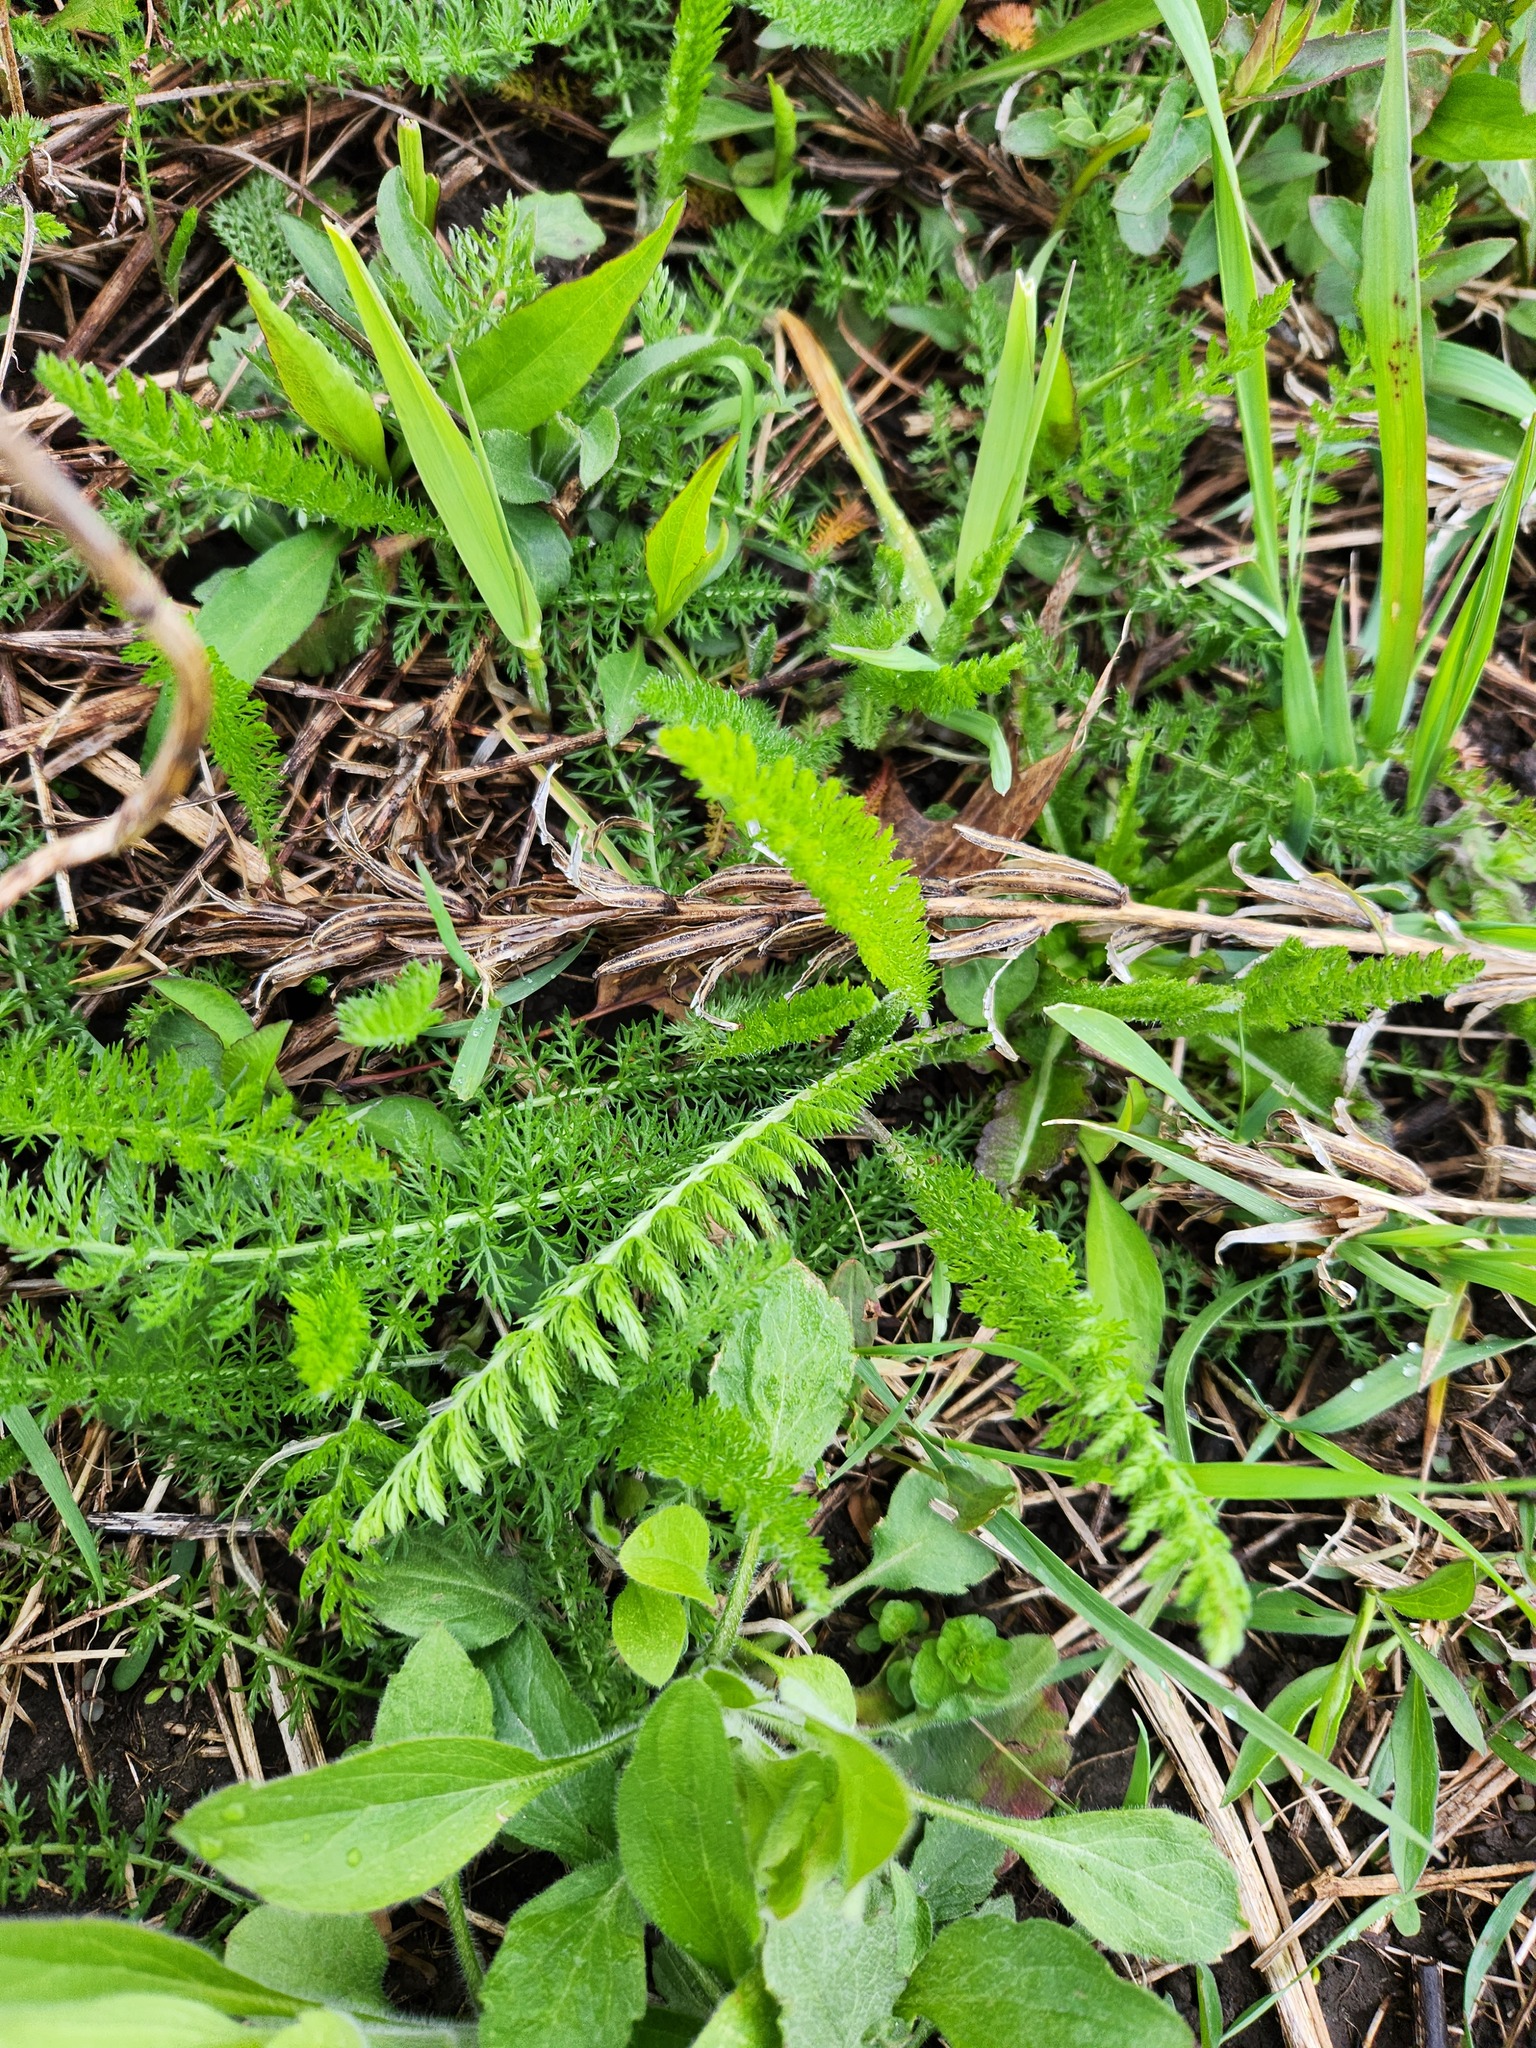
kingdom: Plantae
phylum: Tracheophyta
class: Magnoliopsida
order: Asterales
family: Asteraceae
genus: Achillea
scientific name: Achillea millefolium
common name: Yarrow
